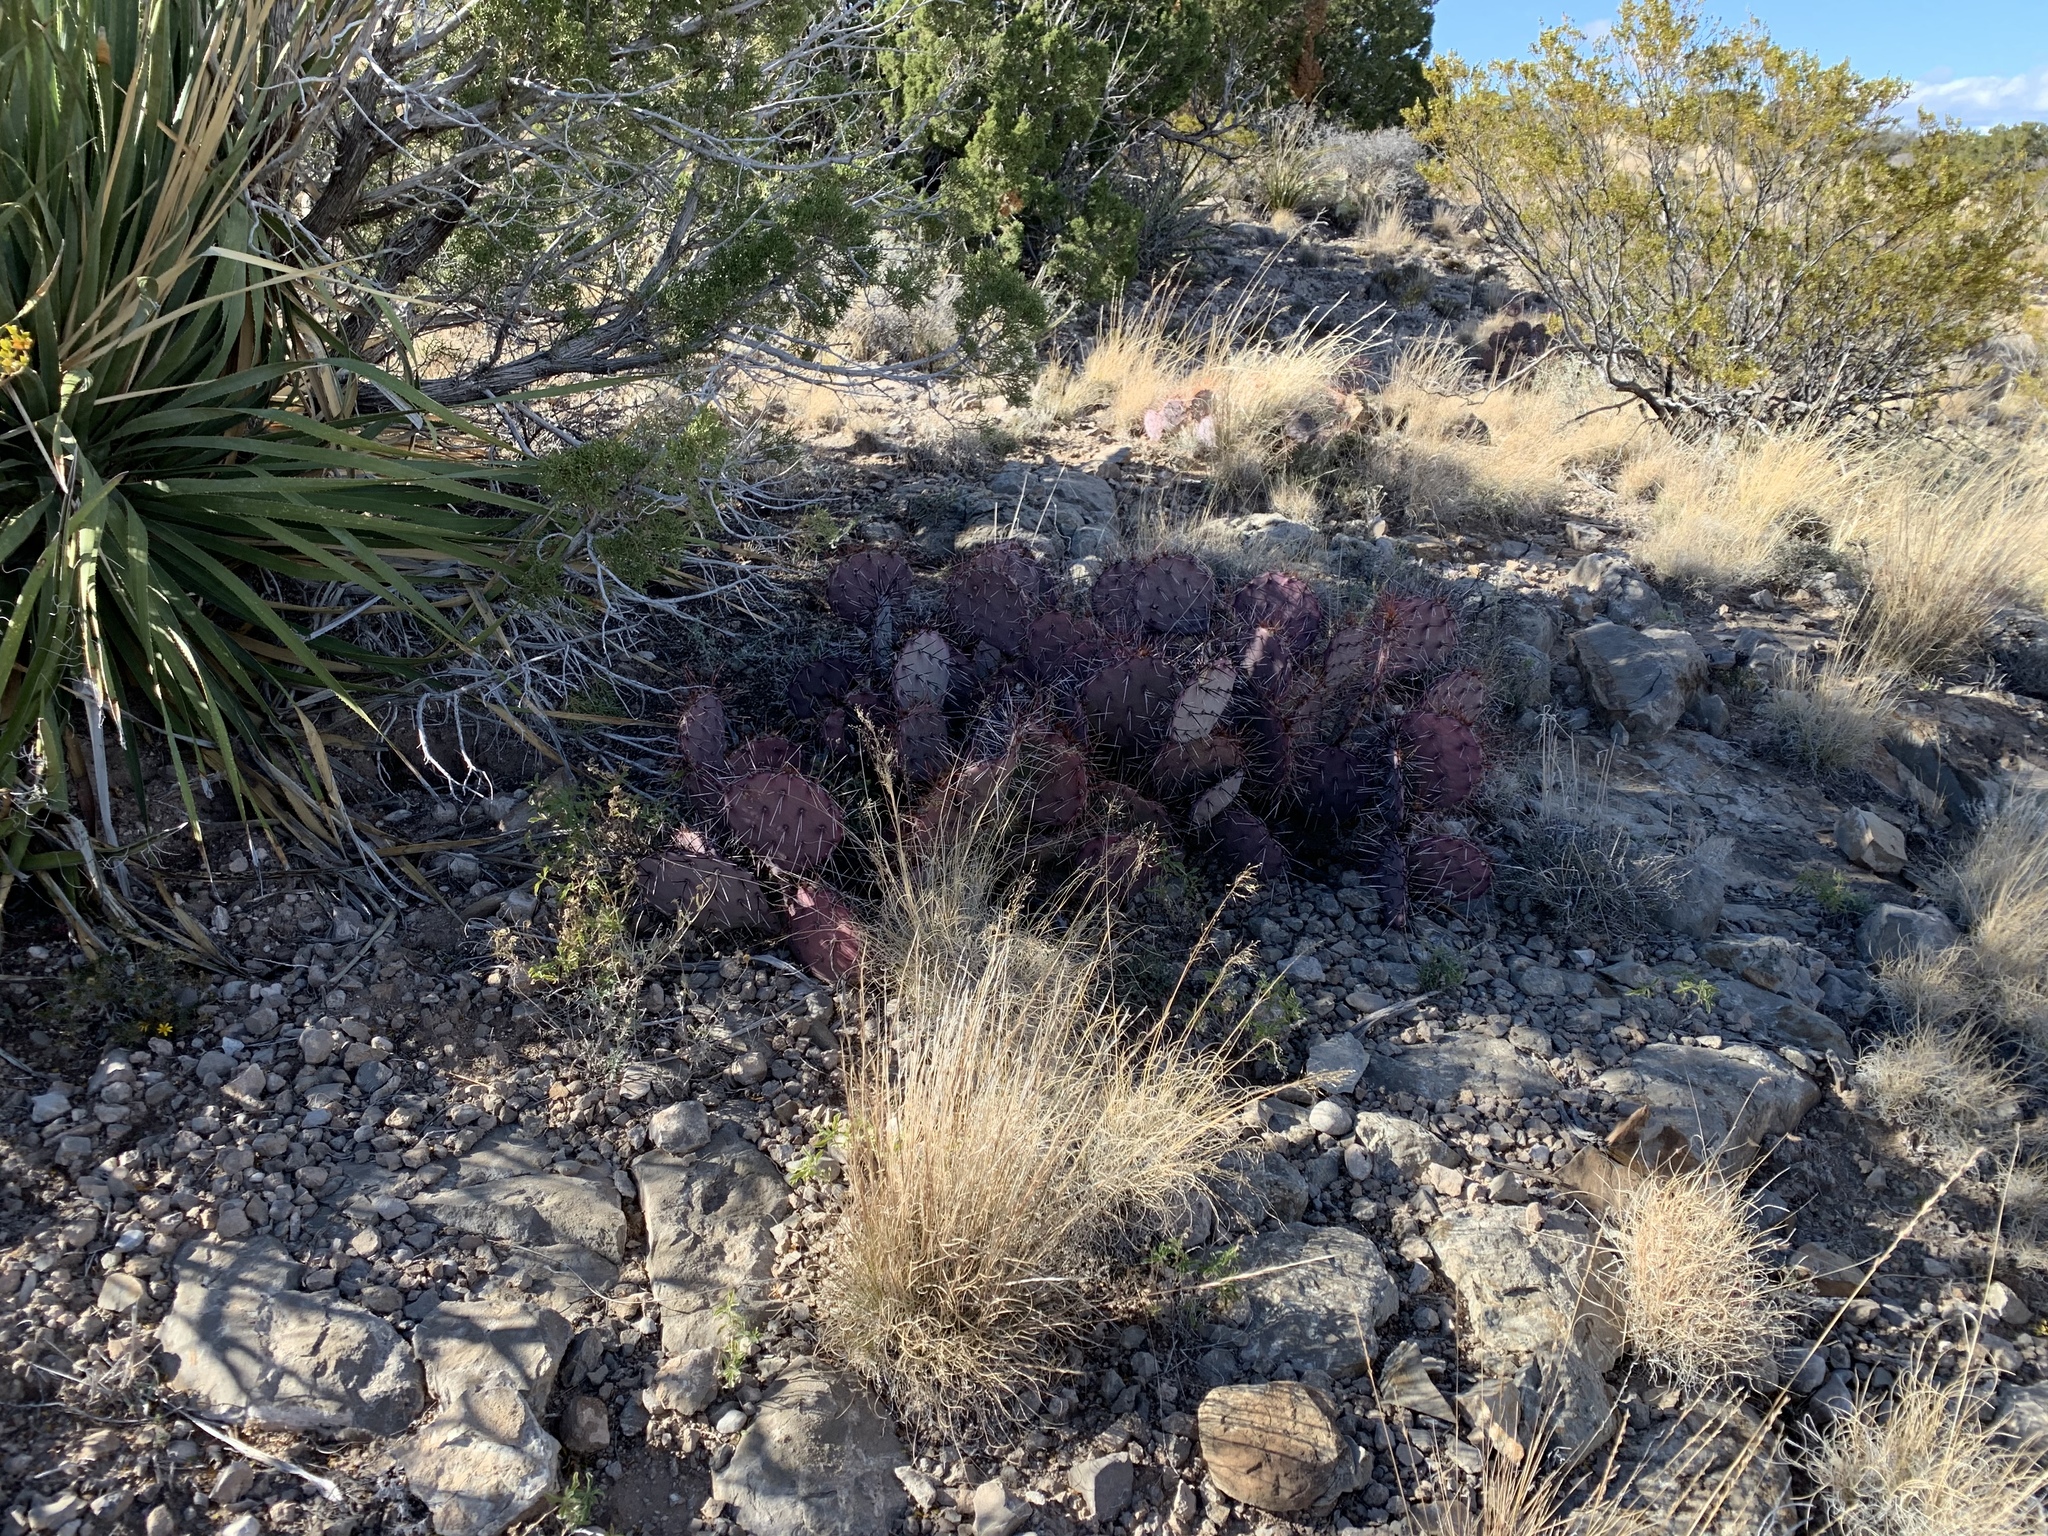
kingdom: Plantae
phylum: Tracheophyta
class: Magnoliopsida
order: Caryophyllales
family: Cactaceae
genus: Opuntia
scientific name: Opuntia macrocentra
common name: Purple prickly-pear
